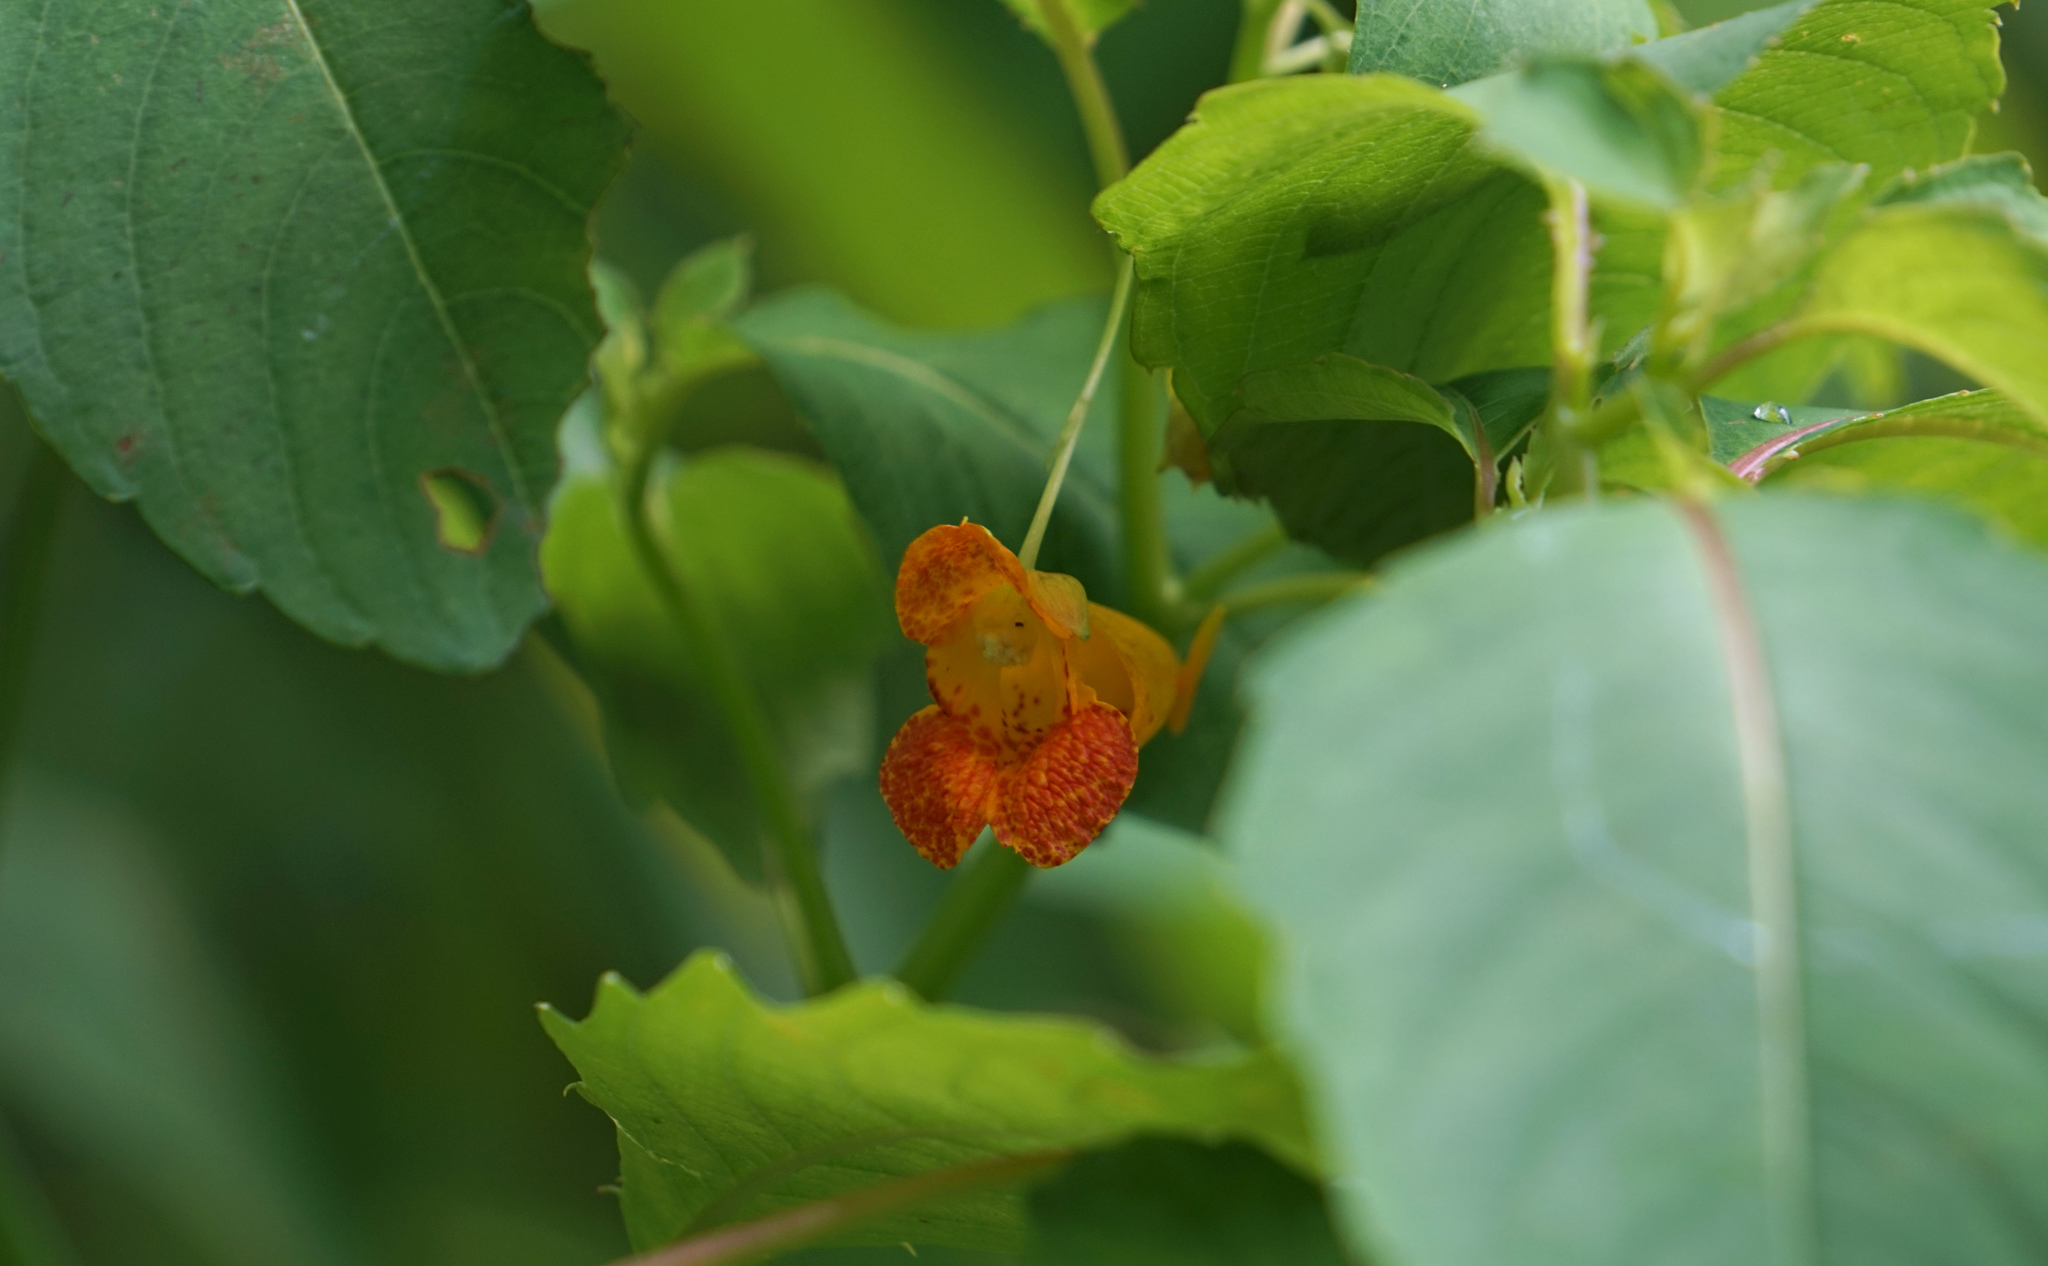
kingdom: Plantae
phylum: Tracheophyta
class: Magnoliopsida
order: Ericales
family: Balsaminaceae
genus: Impatiens
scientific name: Impatiens capensis
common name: Orange balsam
